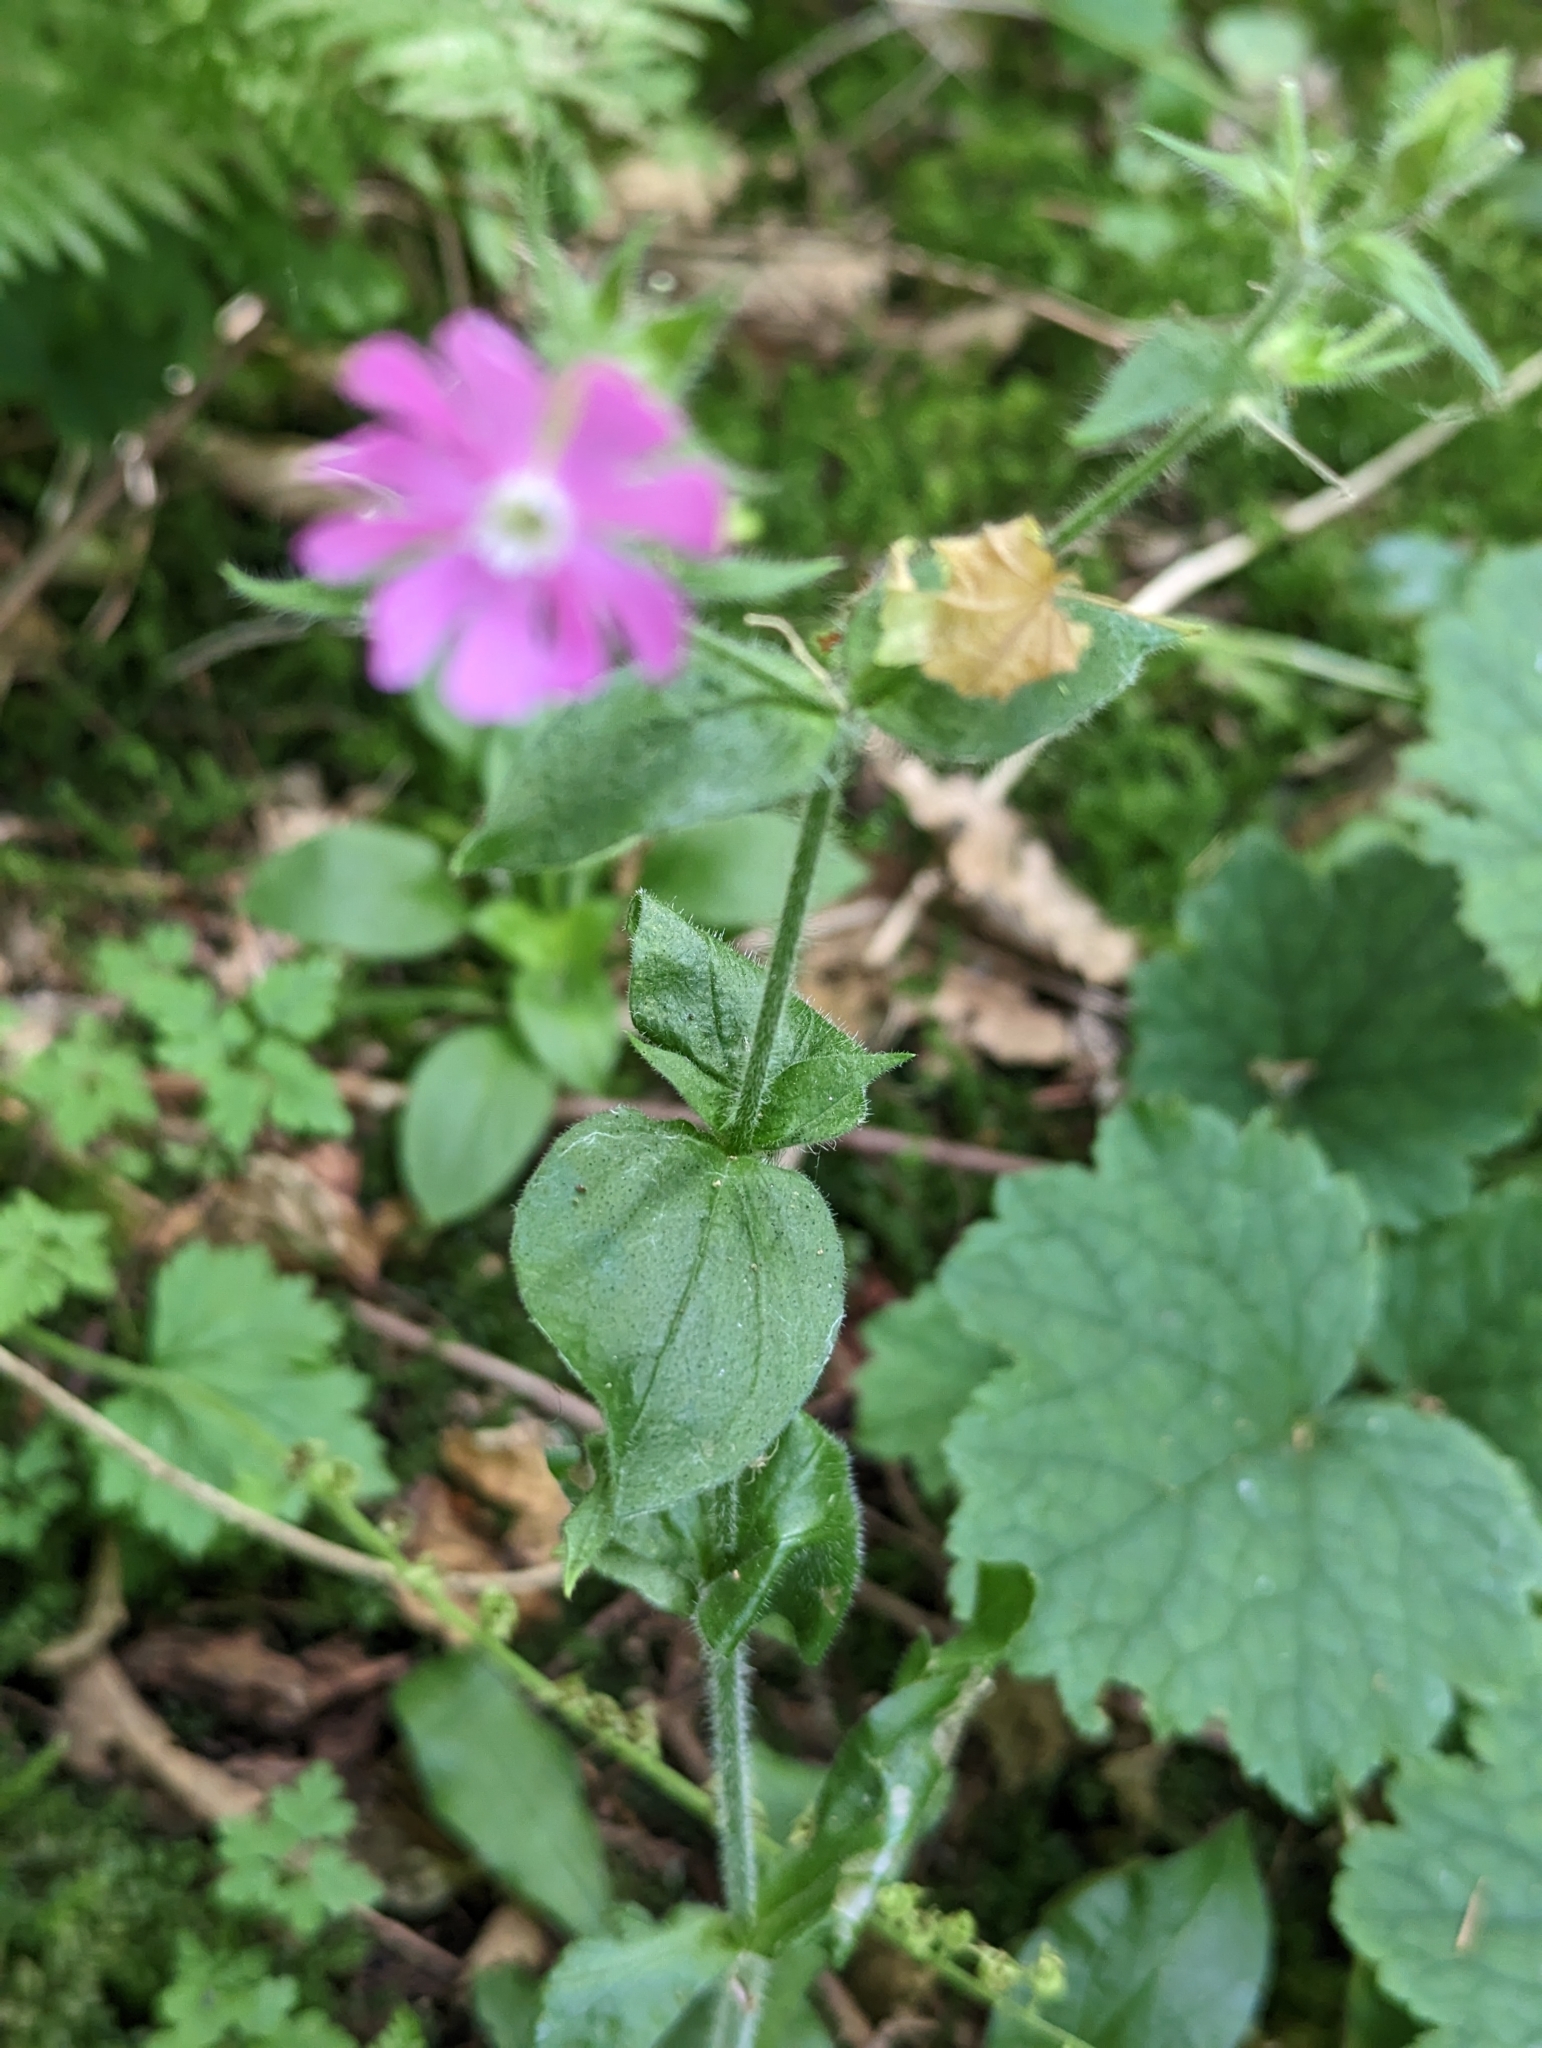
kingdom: Plantae
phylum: Tracheophyta
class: Magnoliopsida
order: Caryophyllales
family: Caryophyllaceae
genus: Silene
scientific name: Silene dioica
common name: Red campion
